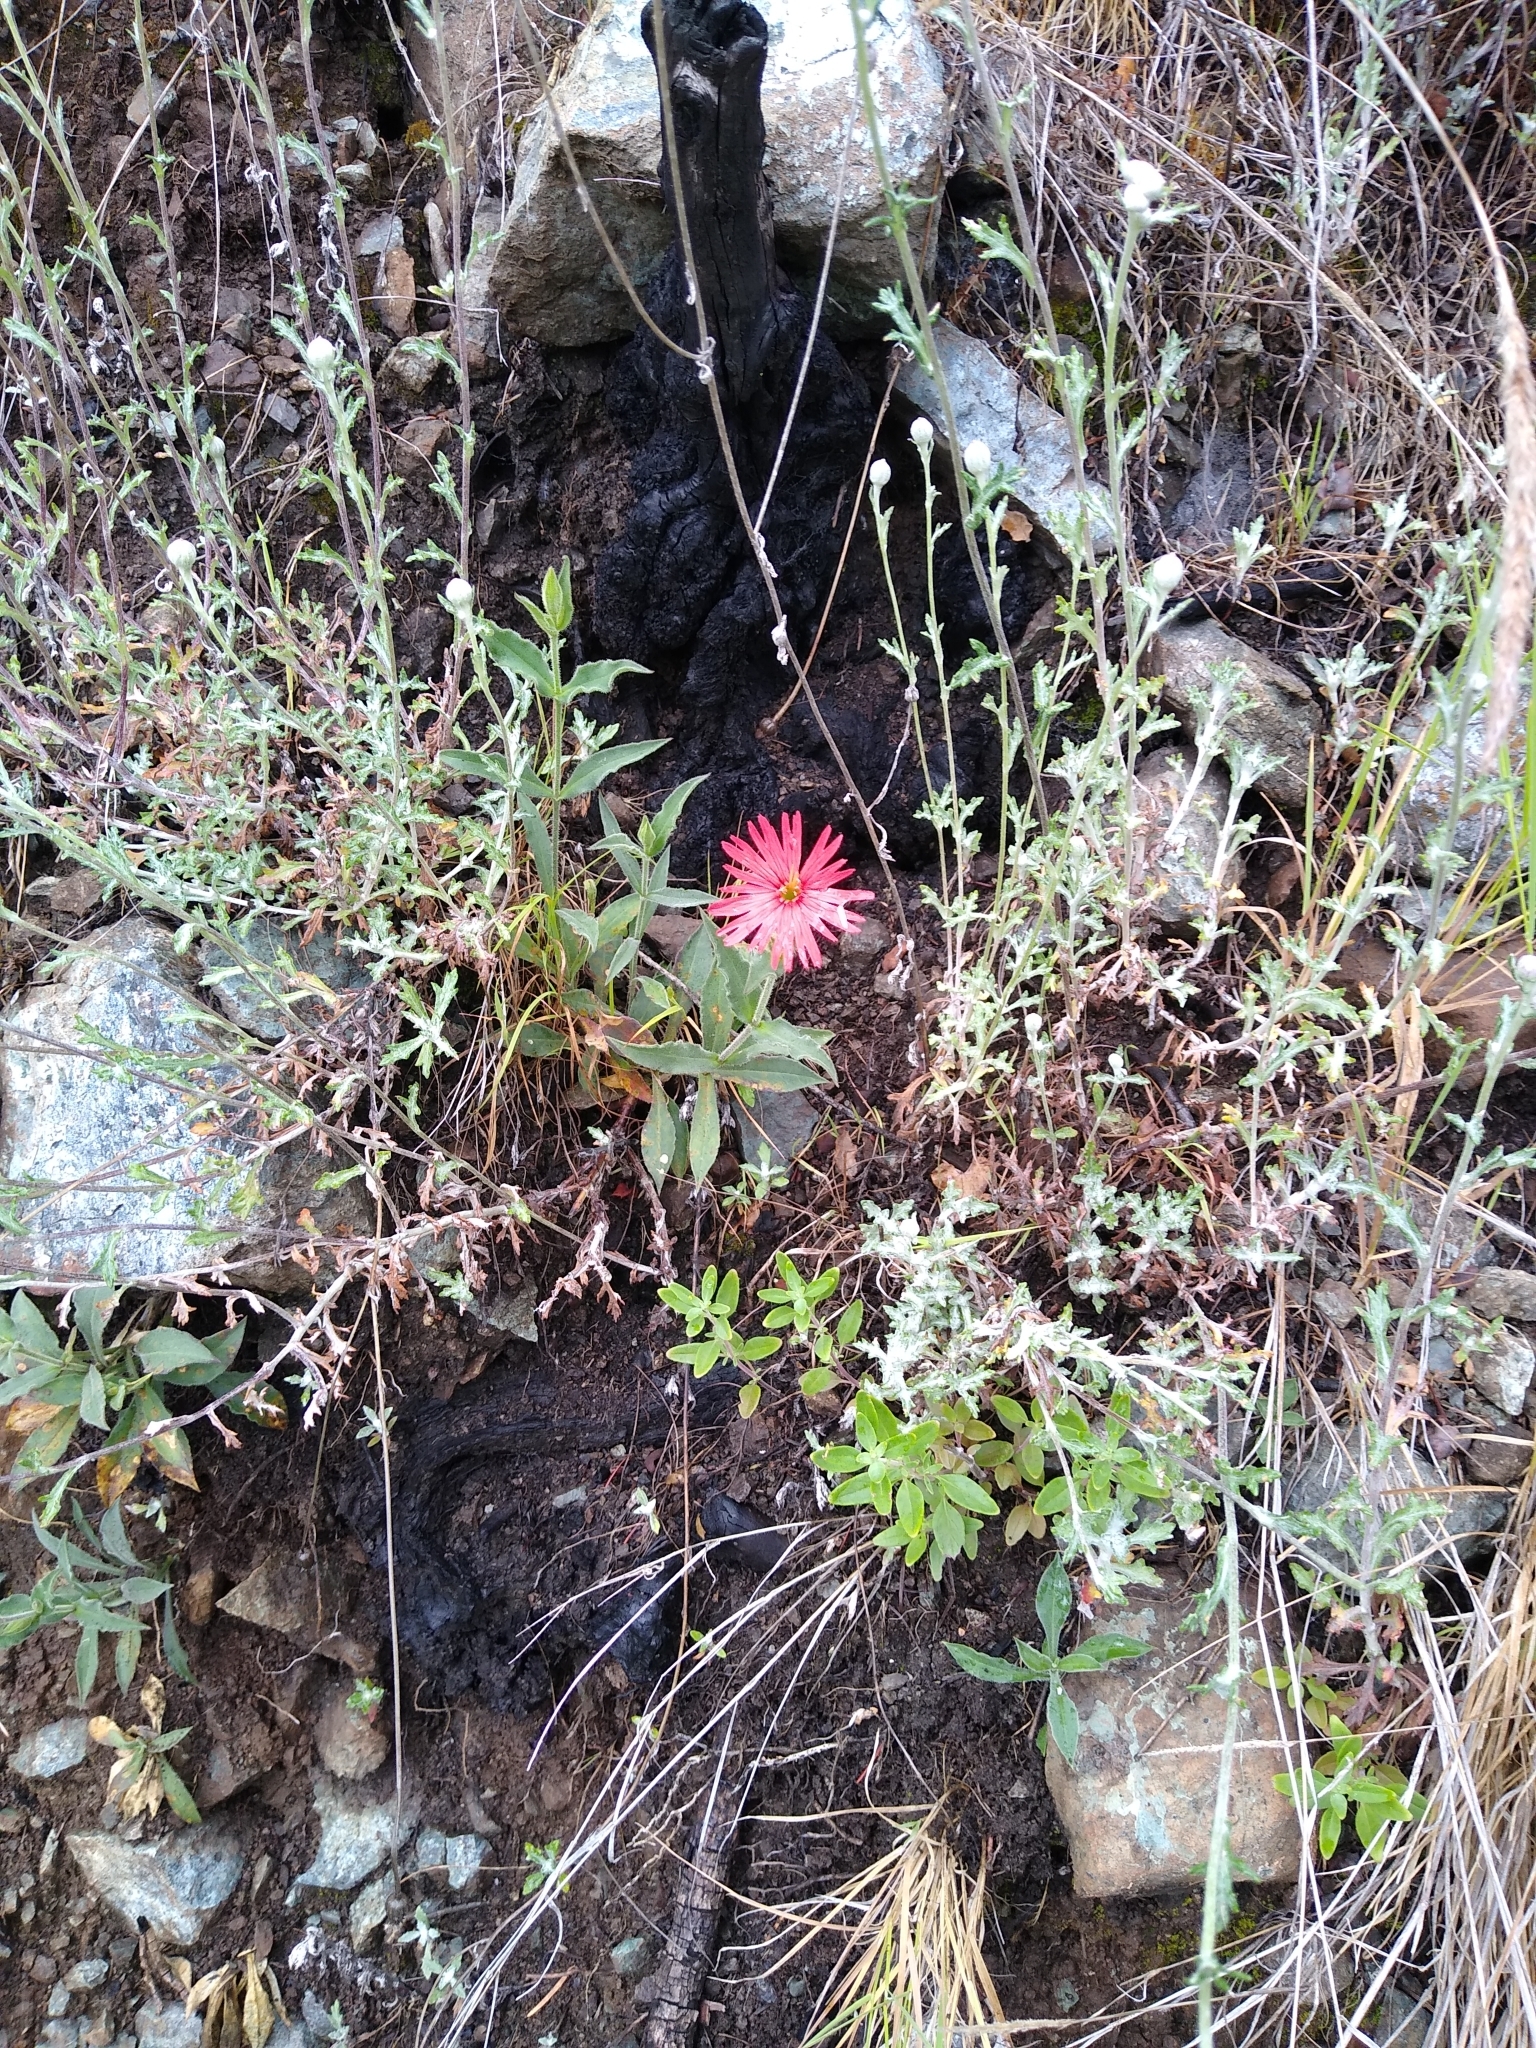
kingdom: Plantae
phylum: Tracheophyta
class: Magnoliopsida
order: Caryophyllales
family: Caryophyllaceae
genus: Silene
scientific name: Silene laciniata
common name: Indian-pink
